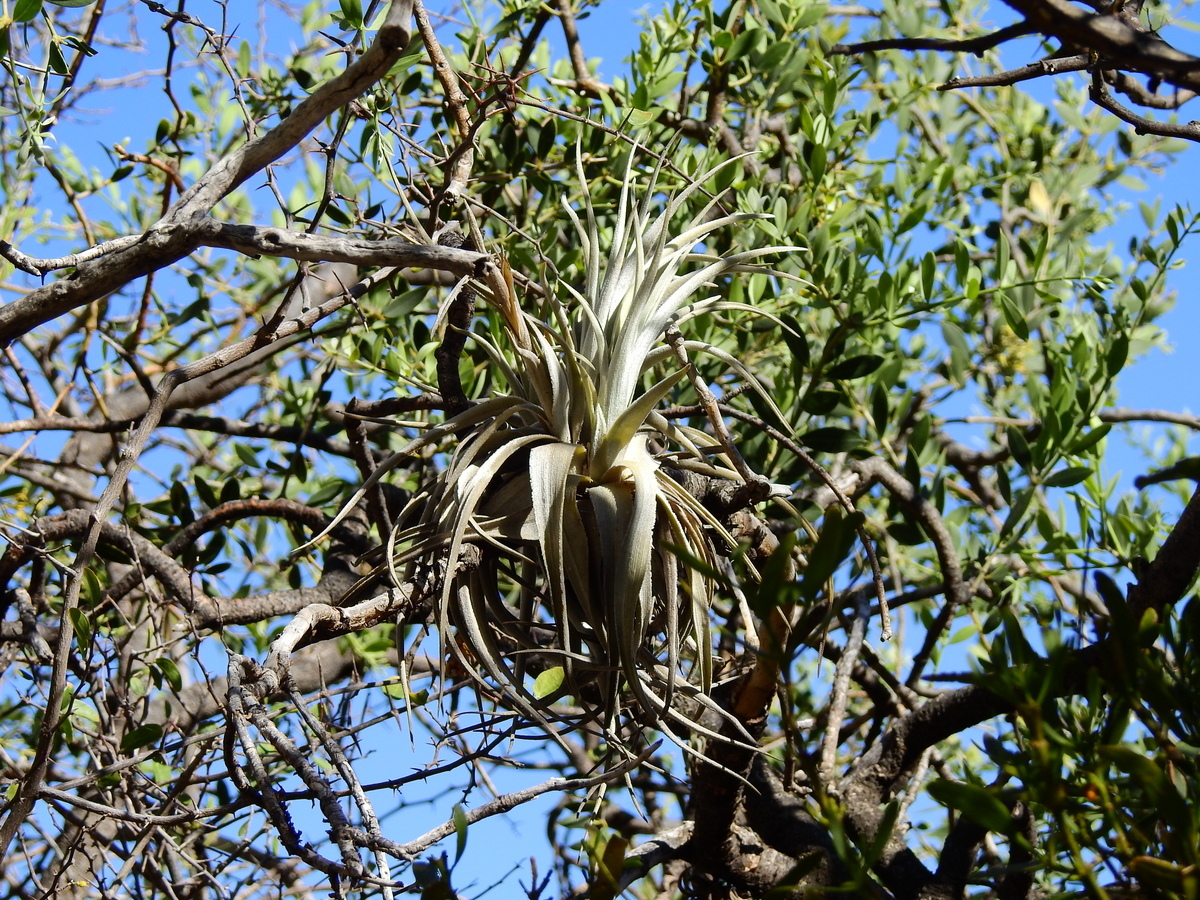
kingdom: Plantae
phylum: Tracheophyta
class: Liliopsida
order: Poales
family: Bromeliaceae
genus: Tillandsia
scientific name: Tillandsia lorentziana
